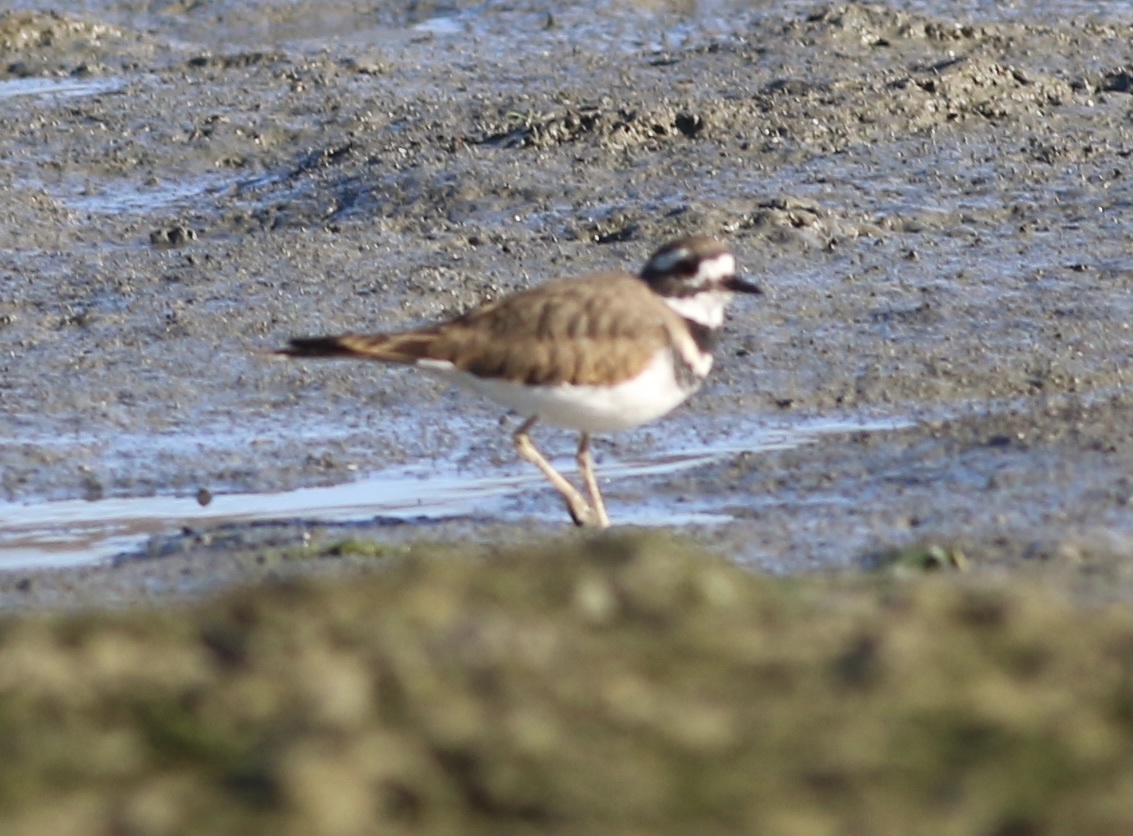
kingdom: Animalia
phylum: Chordata
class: Aves
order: Charadriiformes
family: Charadriidae
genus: Charadrius
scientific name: Charadrius vociferus
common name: Killdeer
